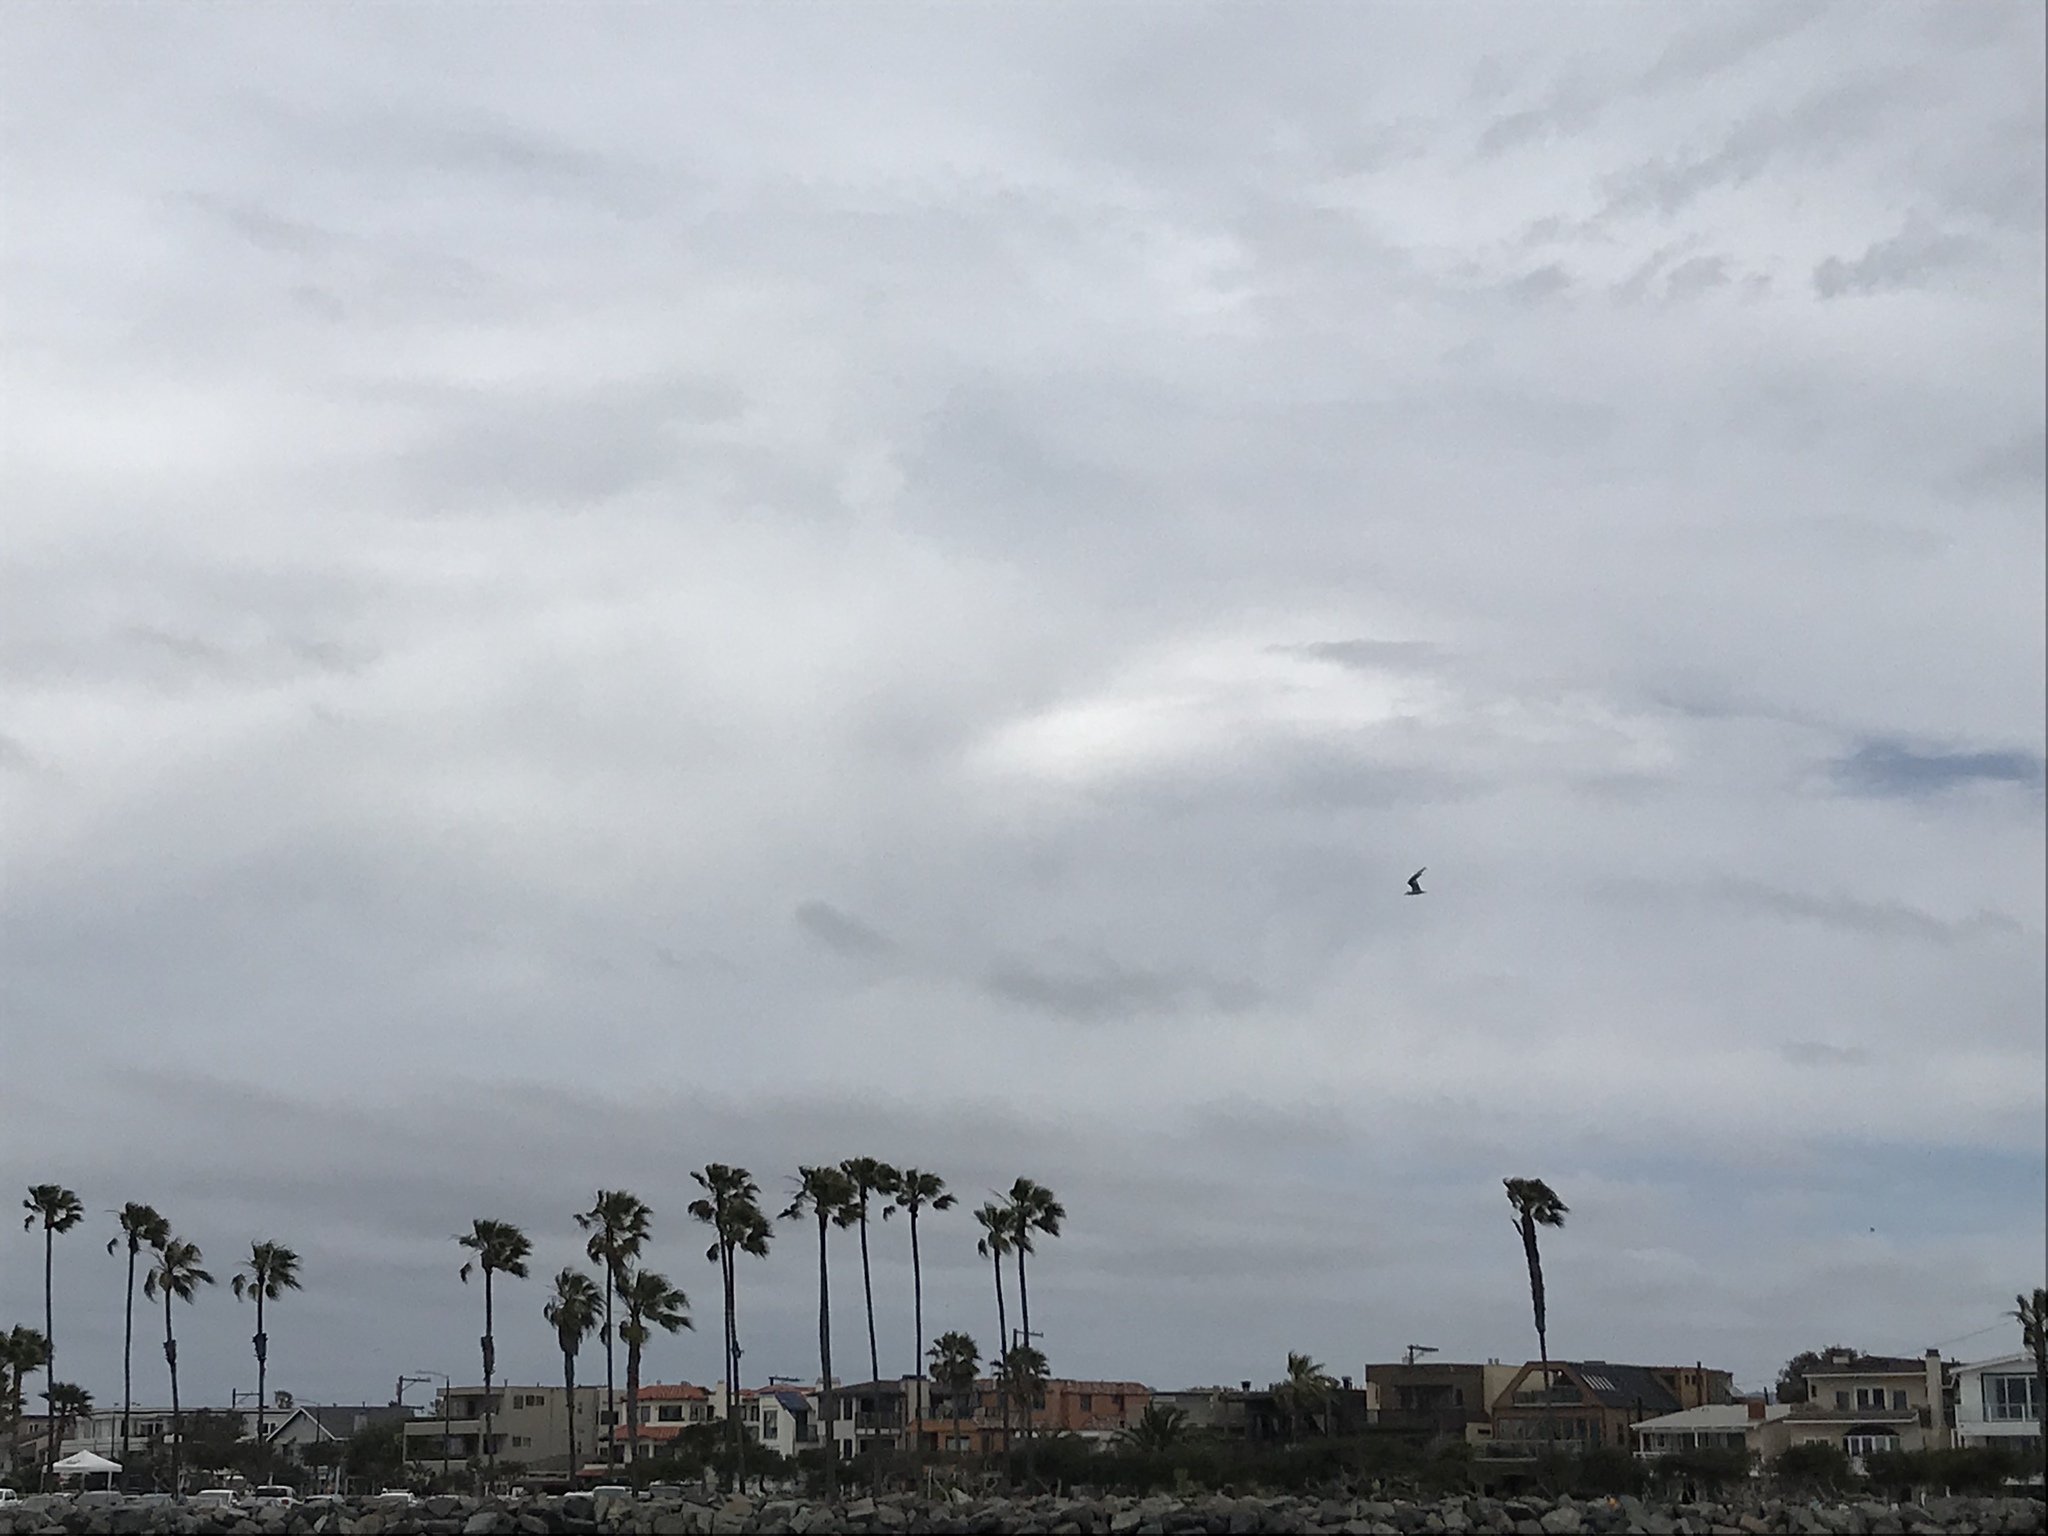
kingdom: Animalia
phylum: Chordata
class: Aves
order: Charadriiformes
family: Laridae
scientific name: Laridae
